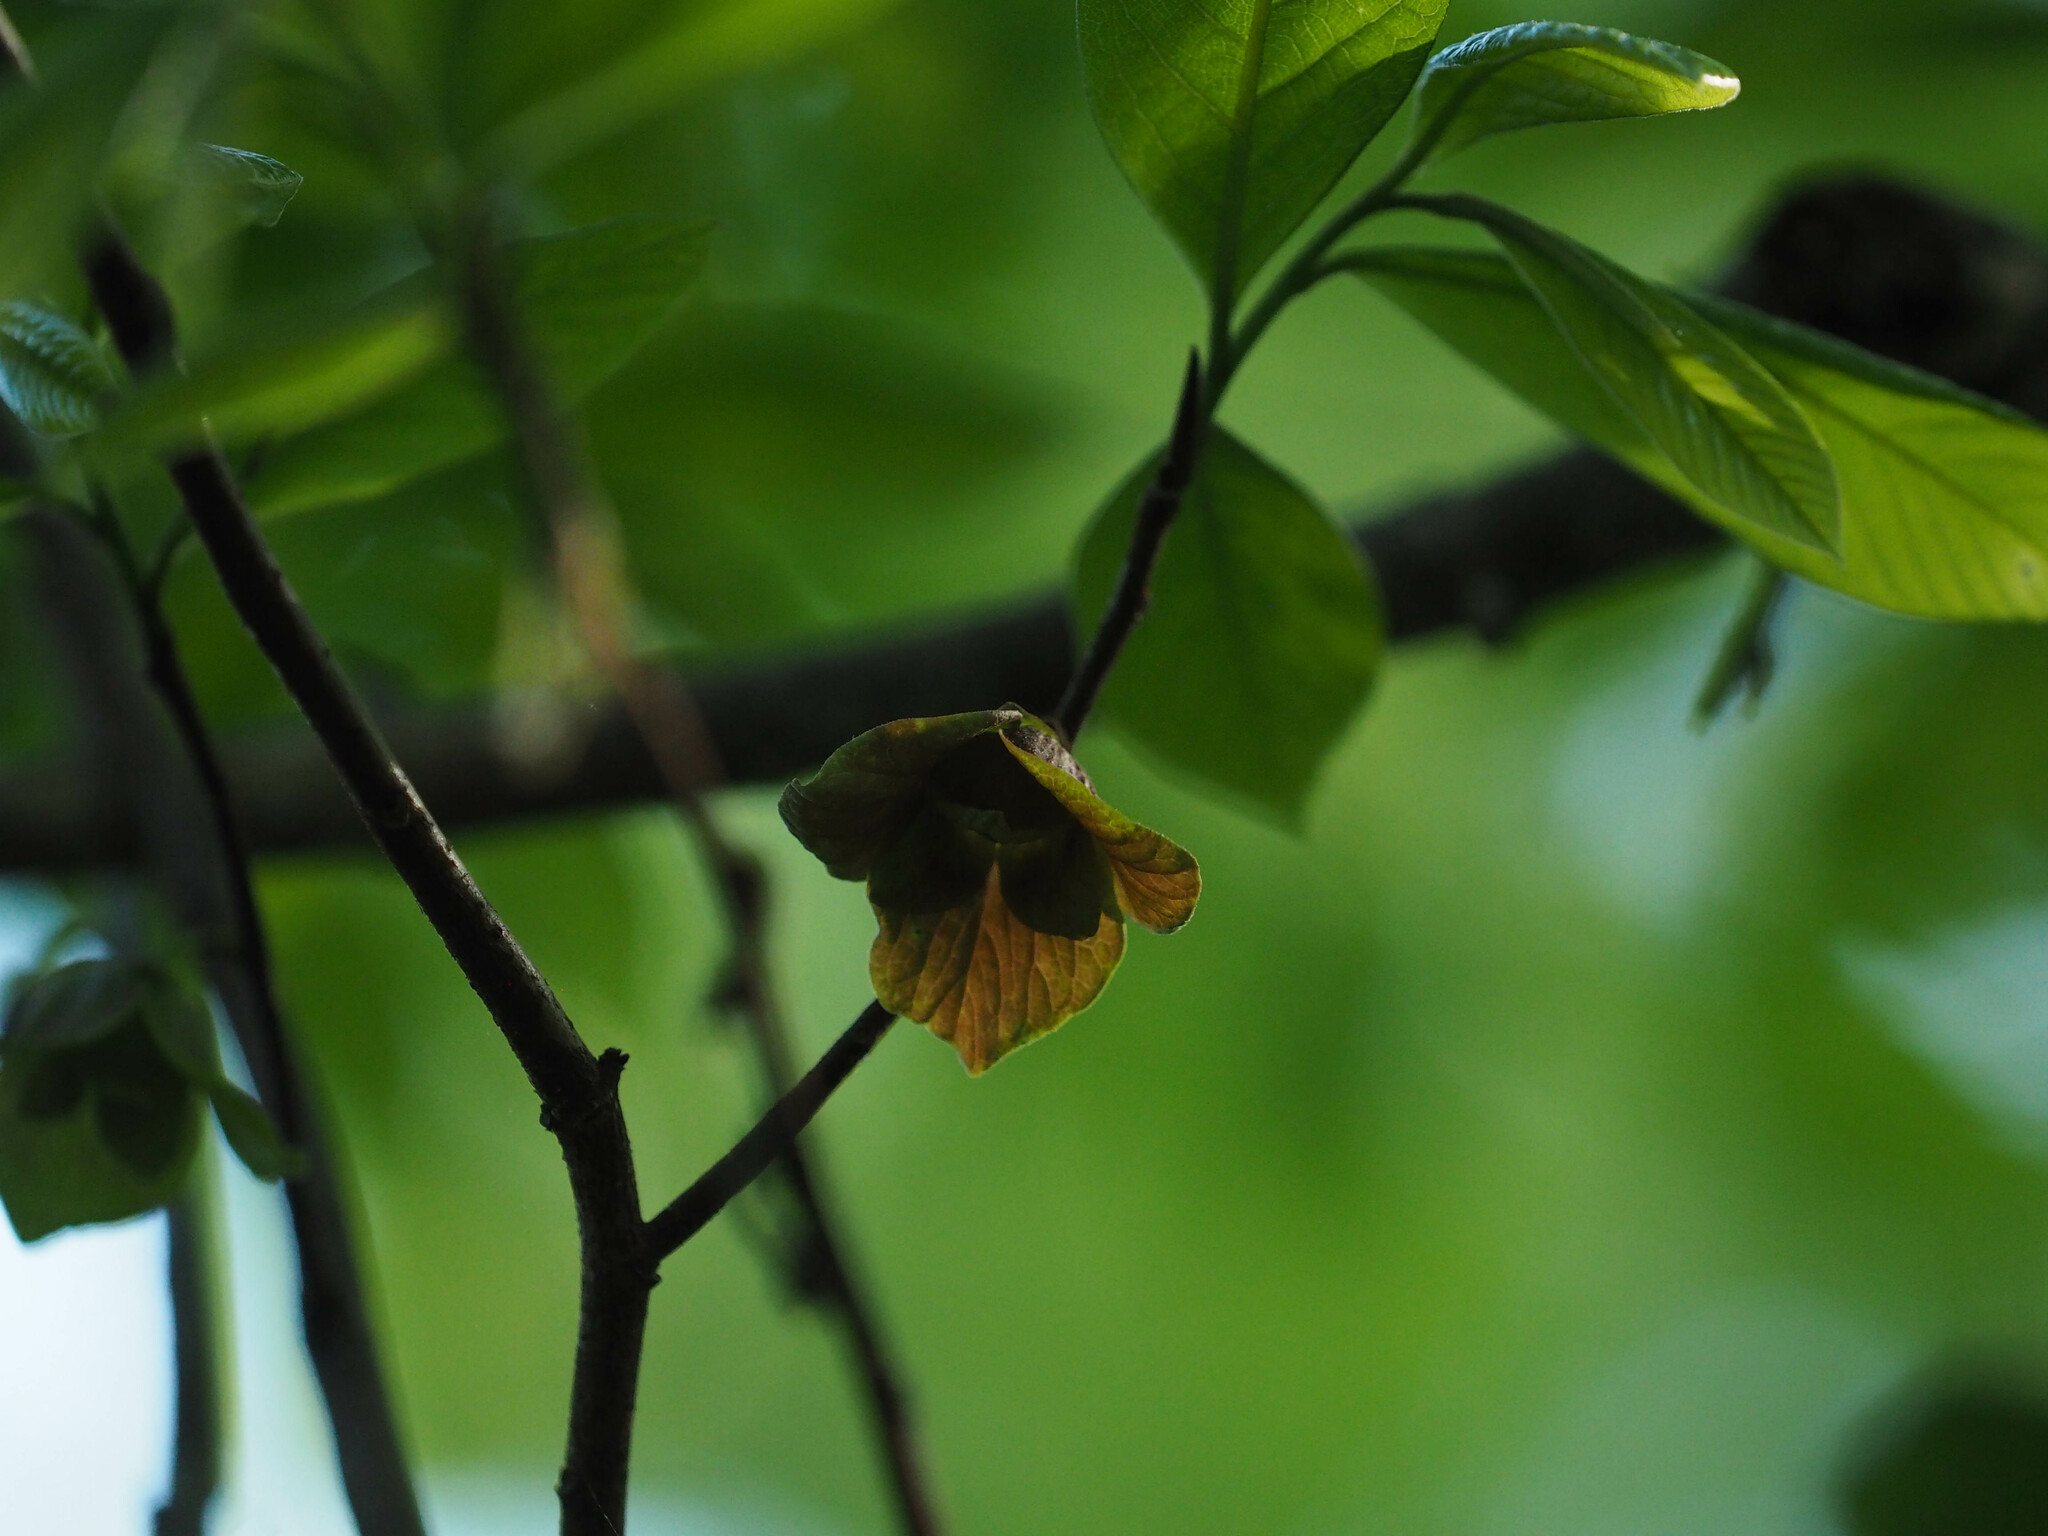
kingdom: Plantae
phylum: Tracheophyta
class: Magnoliopsida
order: Magnoliales
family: Annonaceae
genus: Asimina
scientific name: Asimina triloba
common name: Dog-banana
